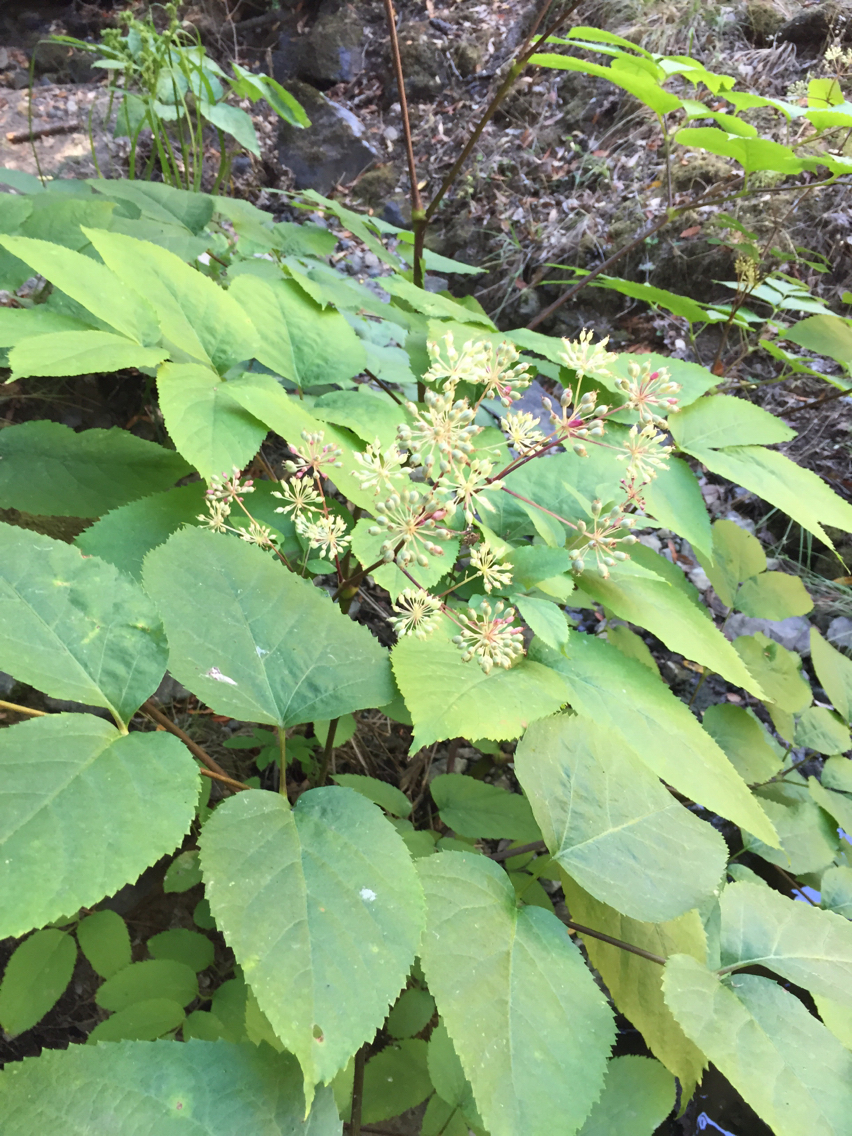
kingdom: Plantae
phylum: Tracheophyta
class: Magnoliopsida
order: Apiales
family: Araliaceae
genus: Aralia
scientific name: Aralia californica
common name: California-ginseng
